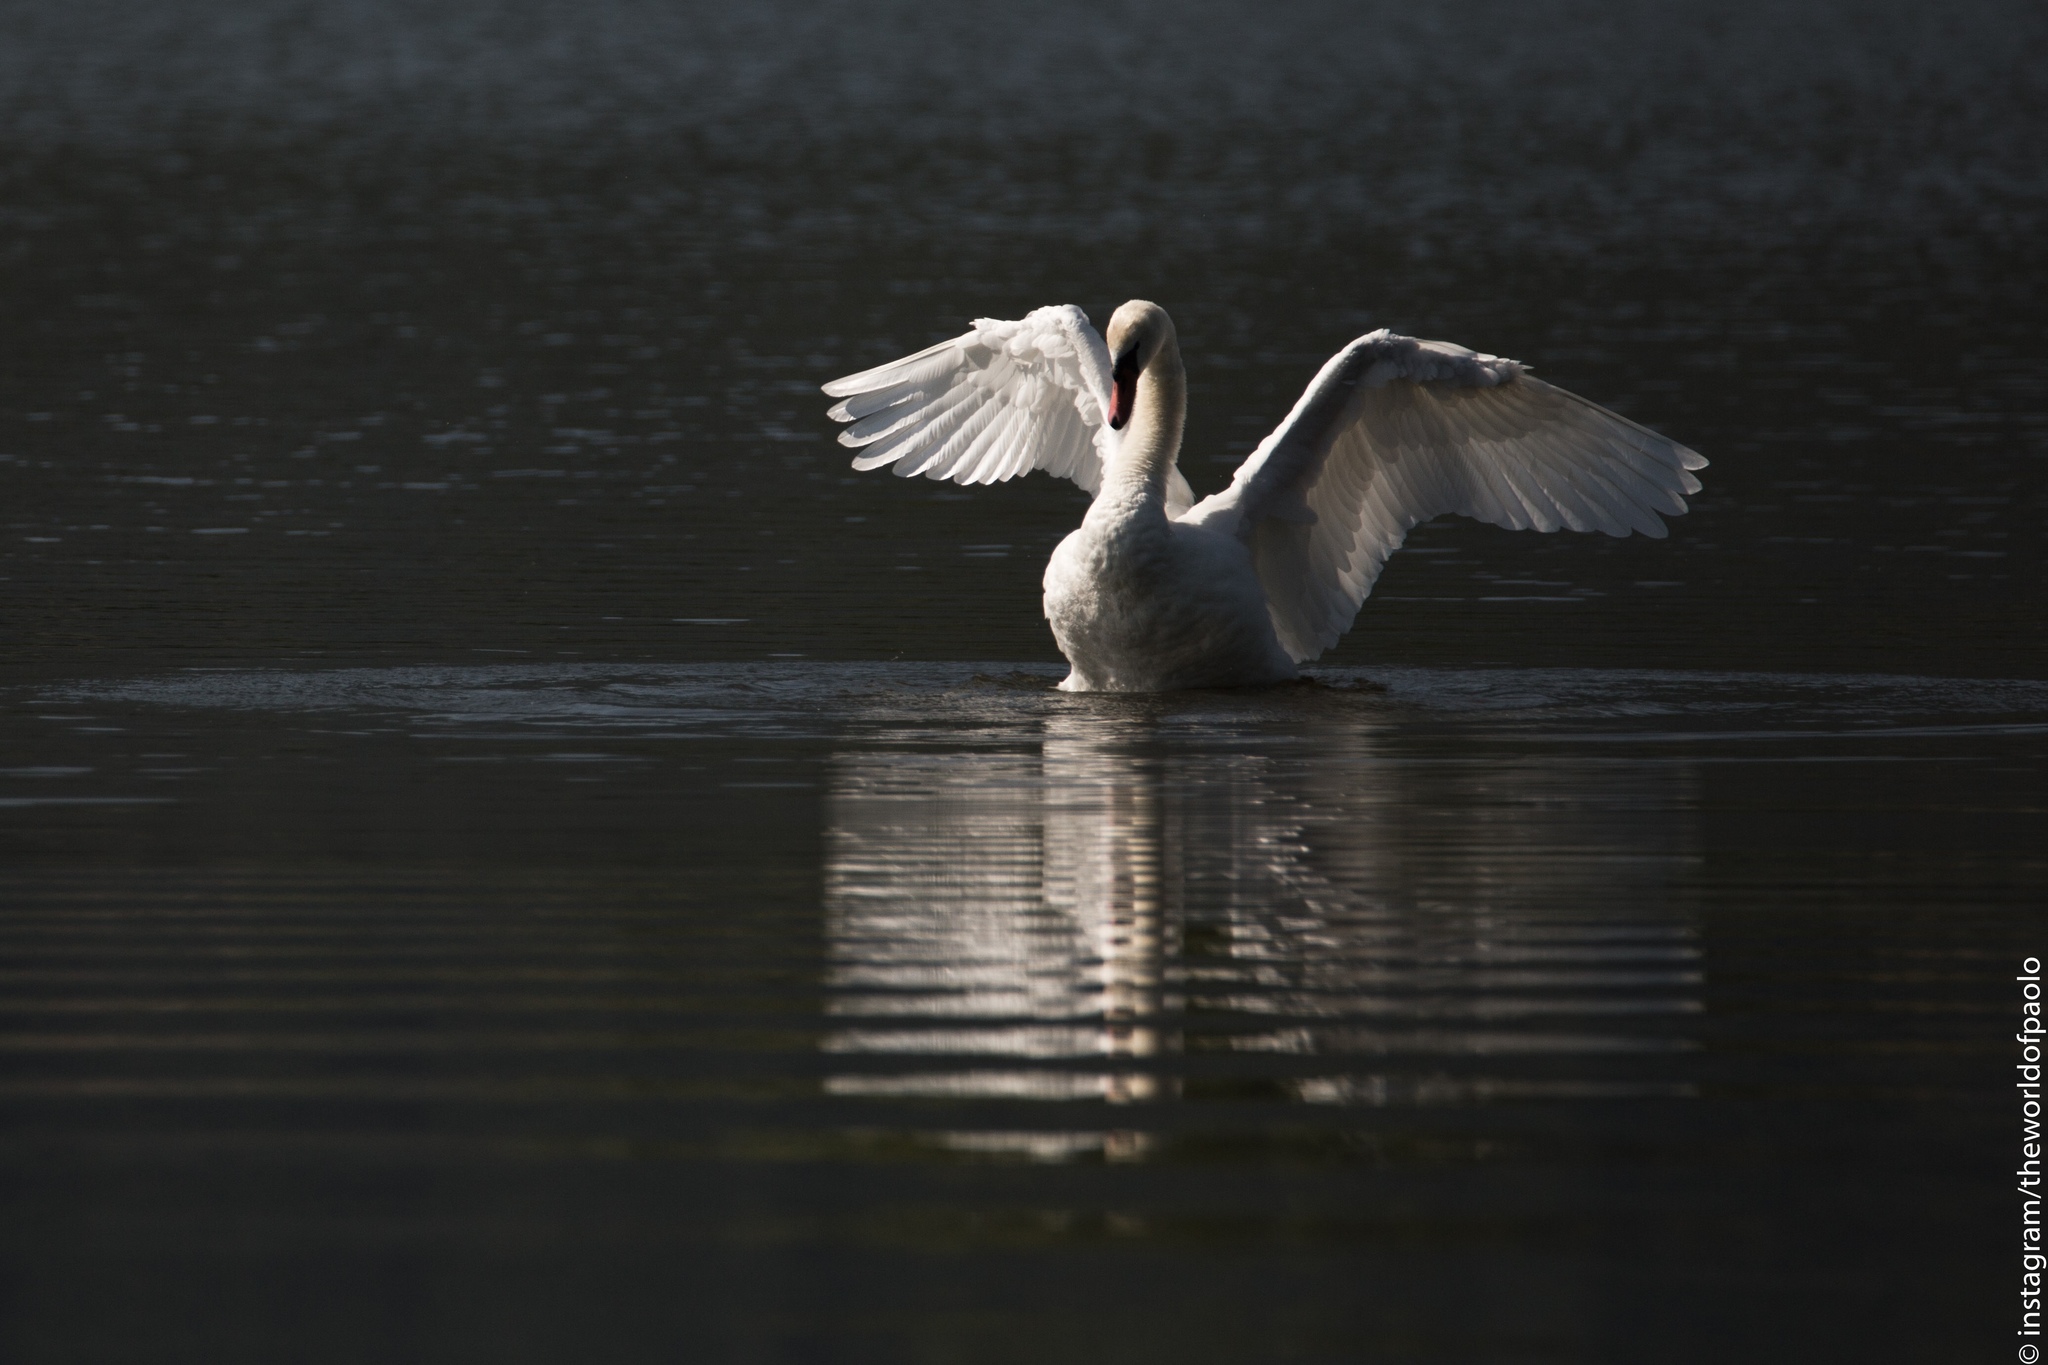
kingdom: Animalia
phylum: Chordata
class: Aves
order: Anseriformes
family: Anatidae
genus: Cygnus
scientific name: Cygnus olor
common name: Mute swan
